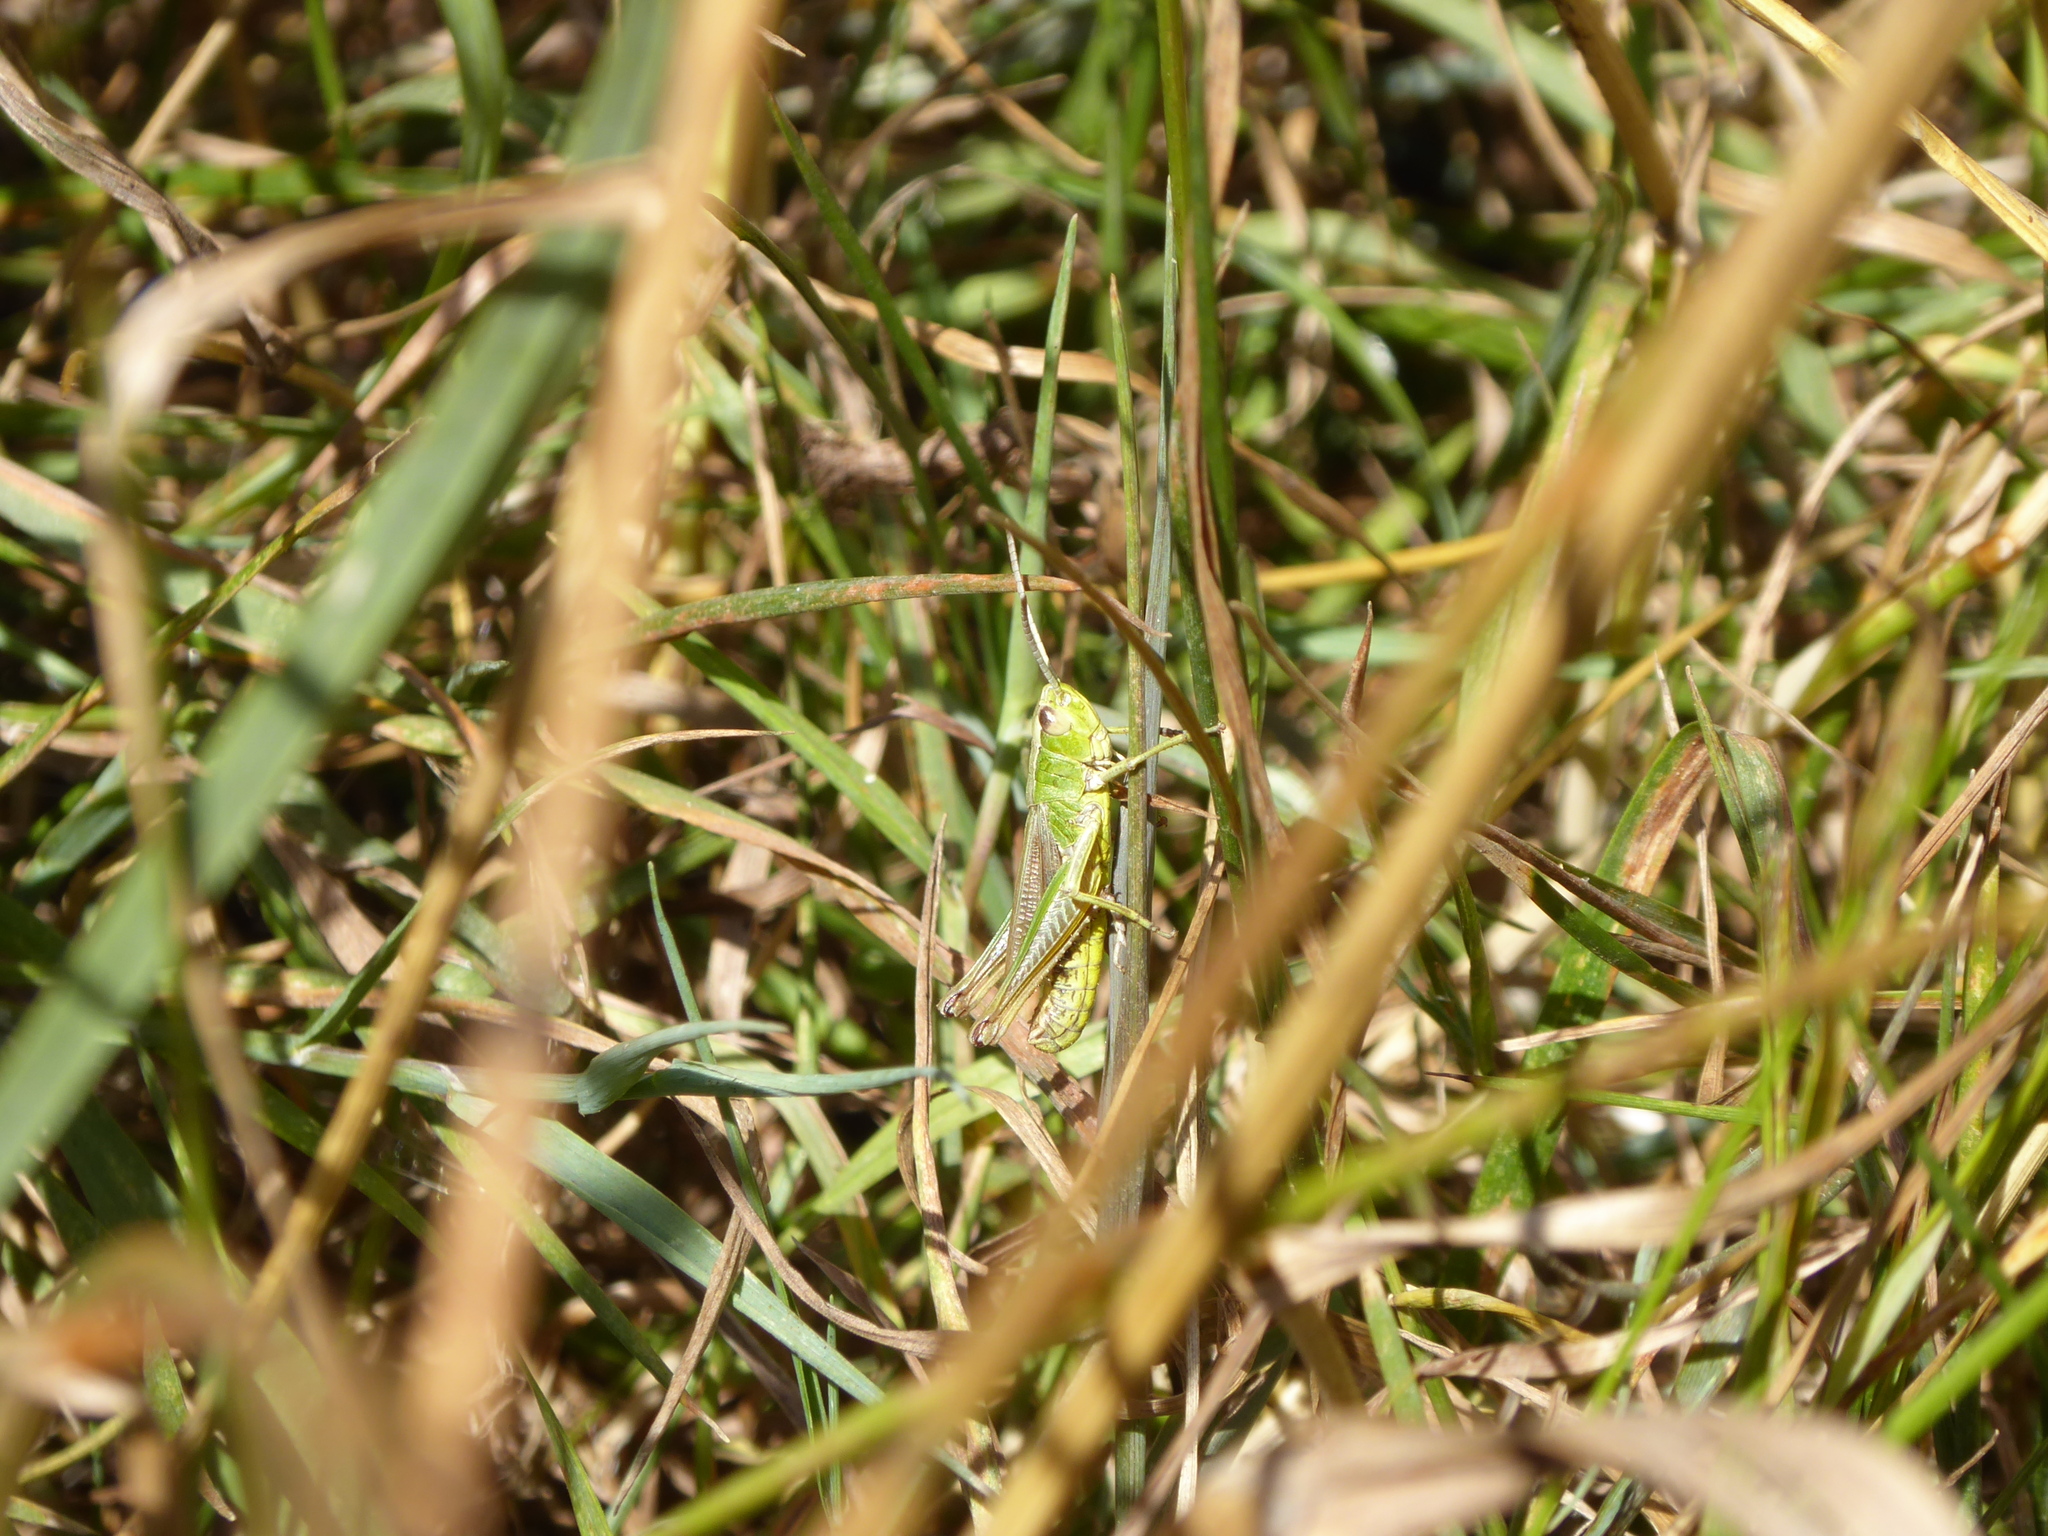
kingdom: Animalia
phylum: Arthropoda
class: Insecta
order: Orthoptera
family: Acrididae
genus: Pseudochorthippus
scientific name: Pseudochorthippus parallelus
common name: Meadow grasshopper
